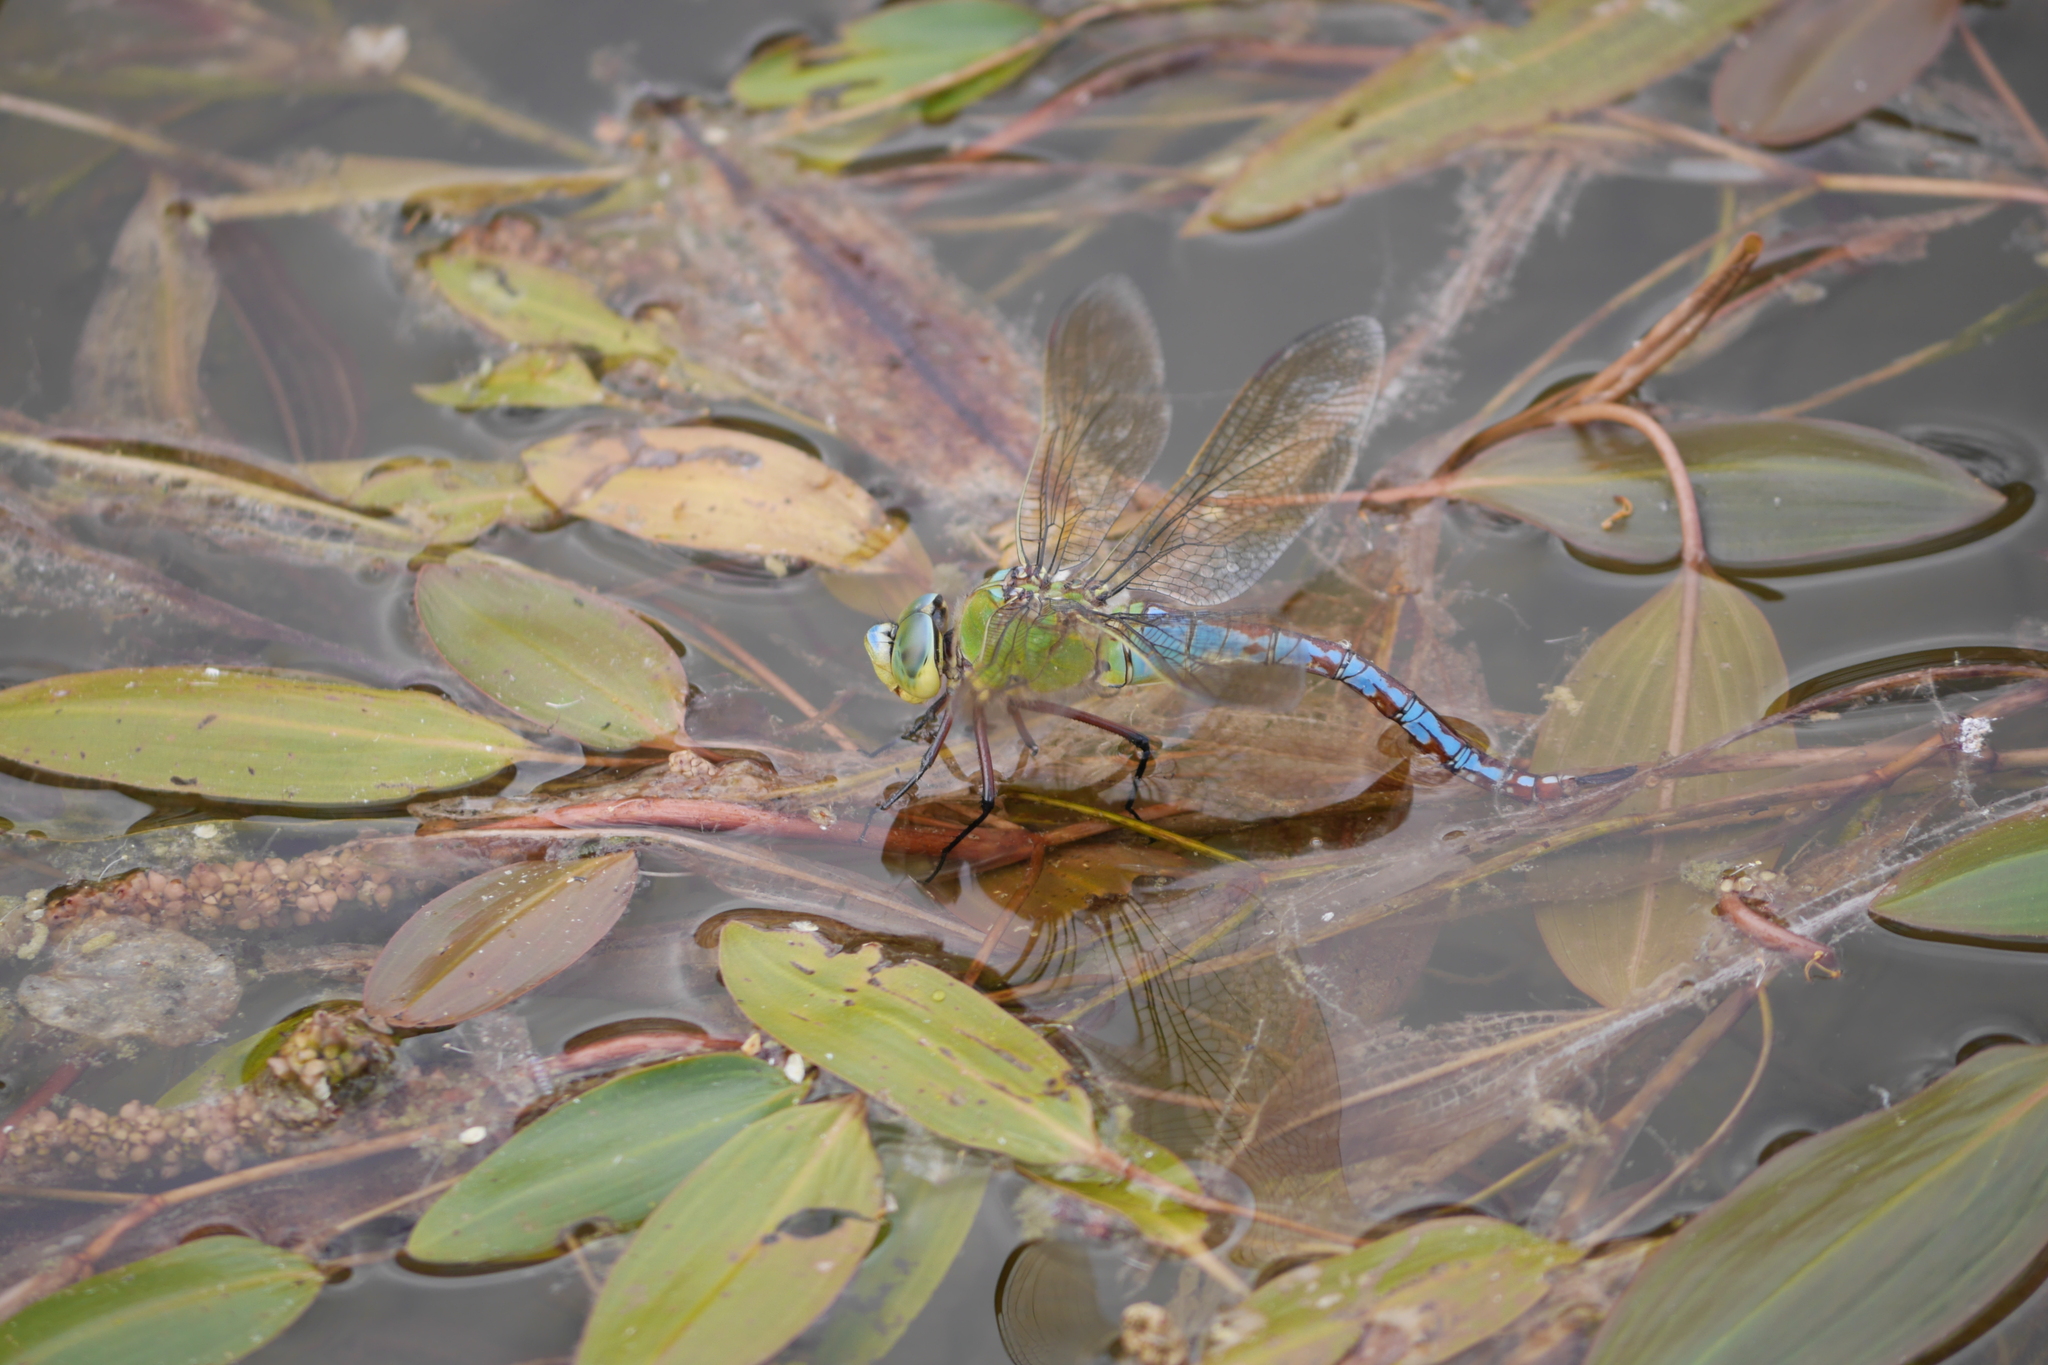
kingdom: Animalia
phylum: Arthropoda
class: Insecta
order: Odonata
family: Aeshnidae
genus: Anax
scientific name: Anax imperator
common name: Emperor dragonfly
